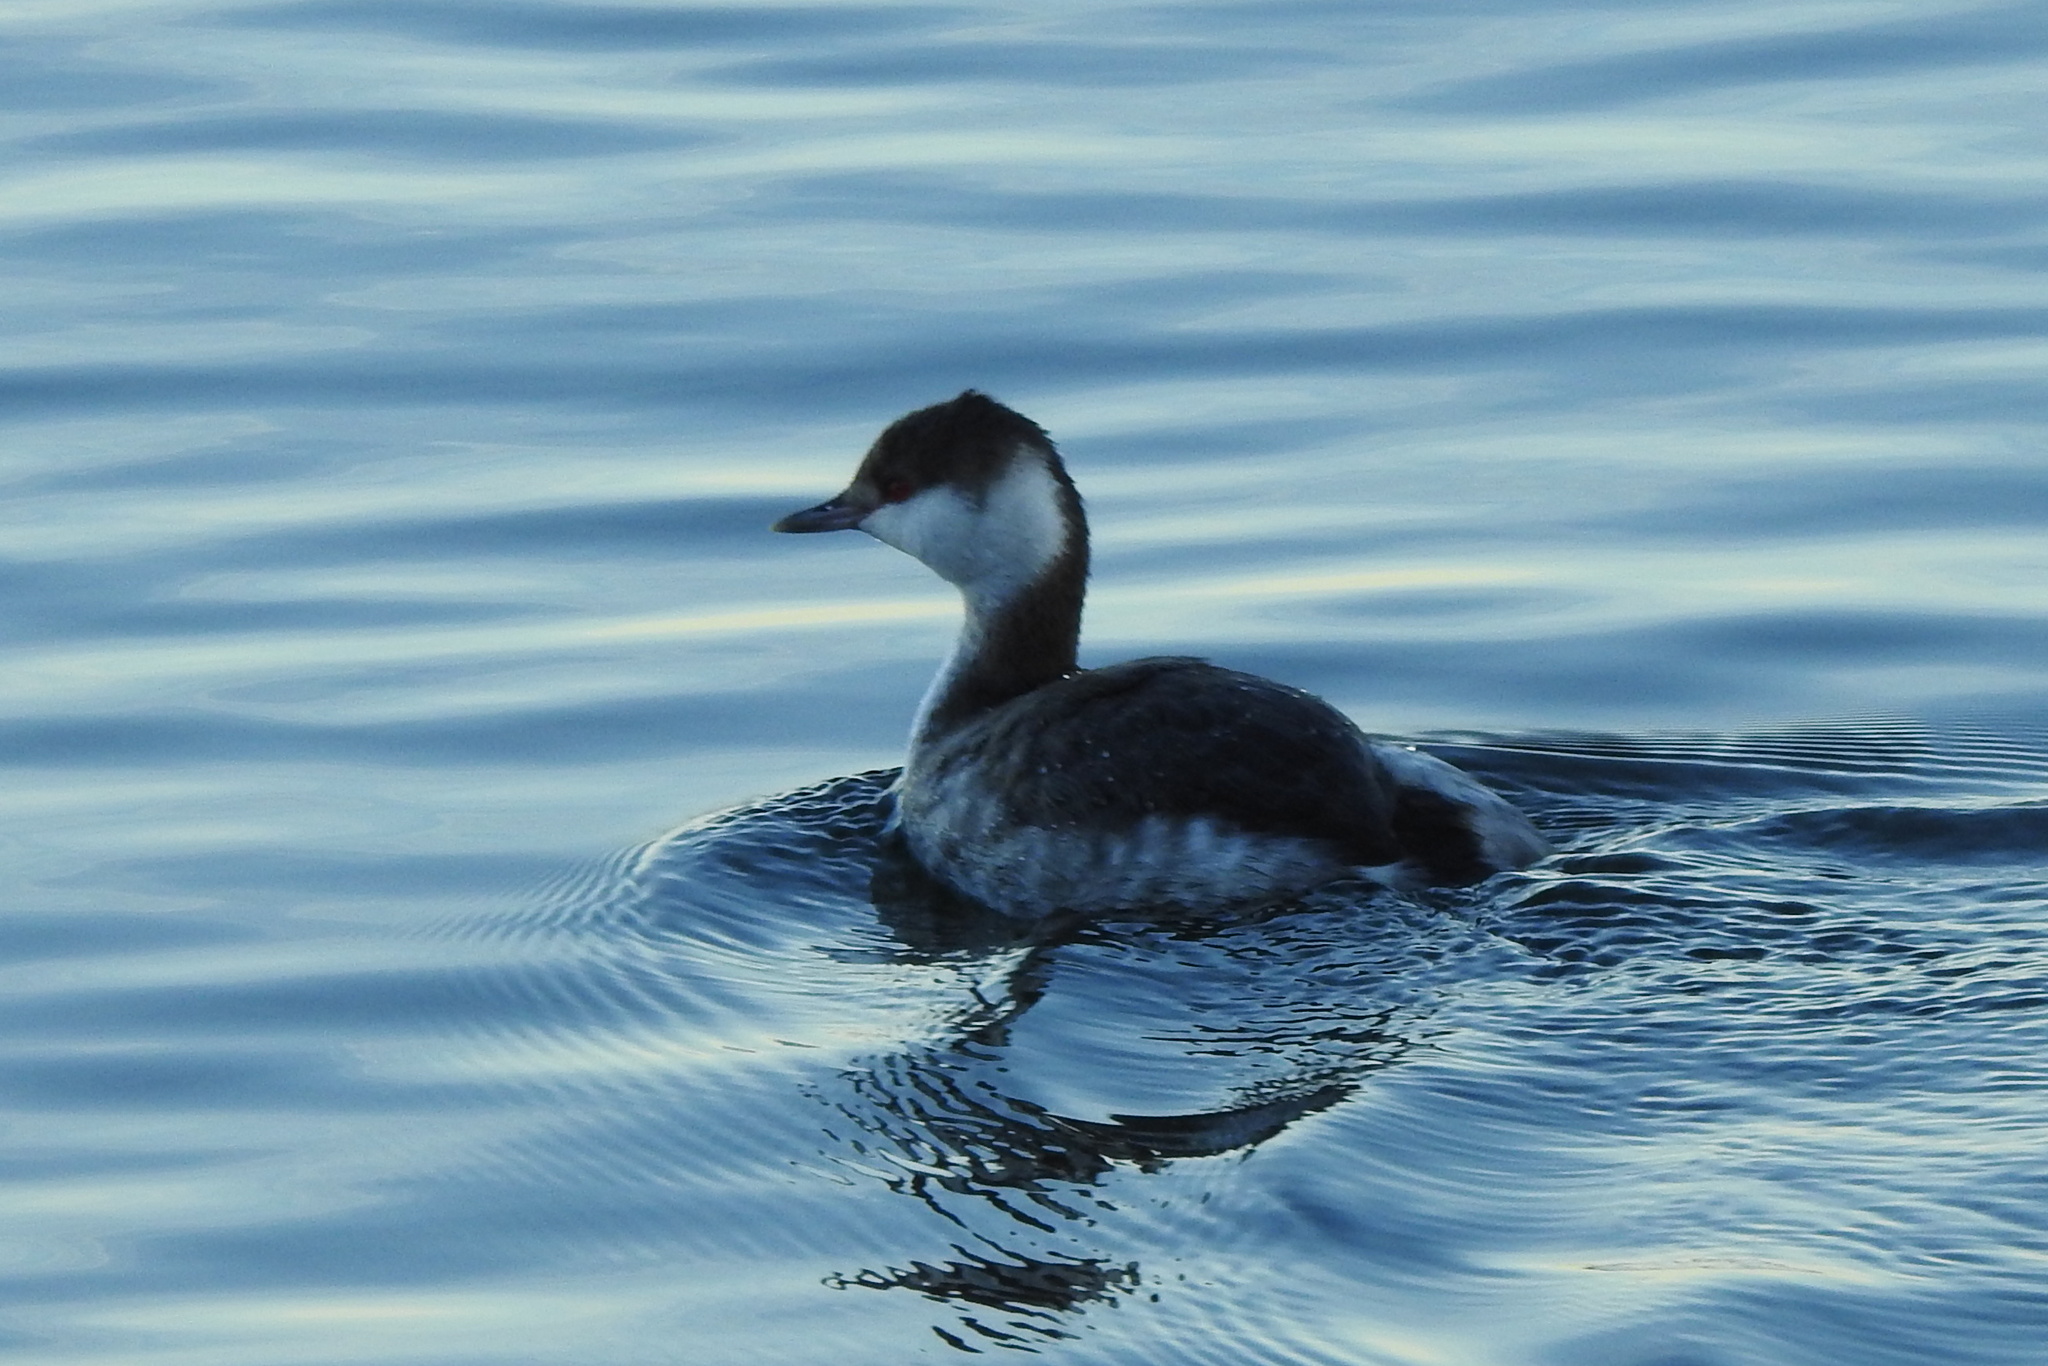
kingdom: Animalia
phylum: Chordata
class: Aves
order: Podicipediformes
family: Podicipedidae
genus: Podiceps
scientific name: Podiceps auritus
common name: Horned grebe
